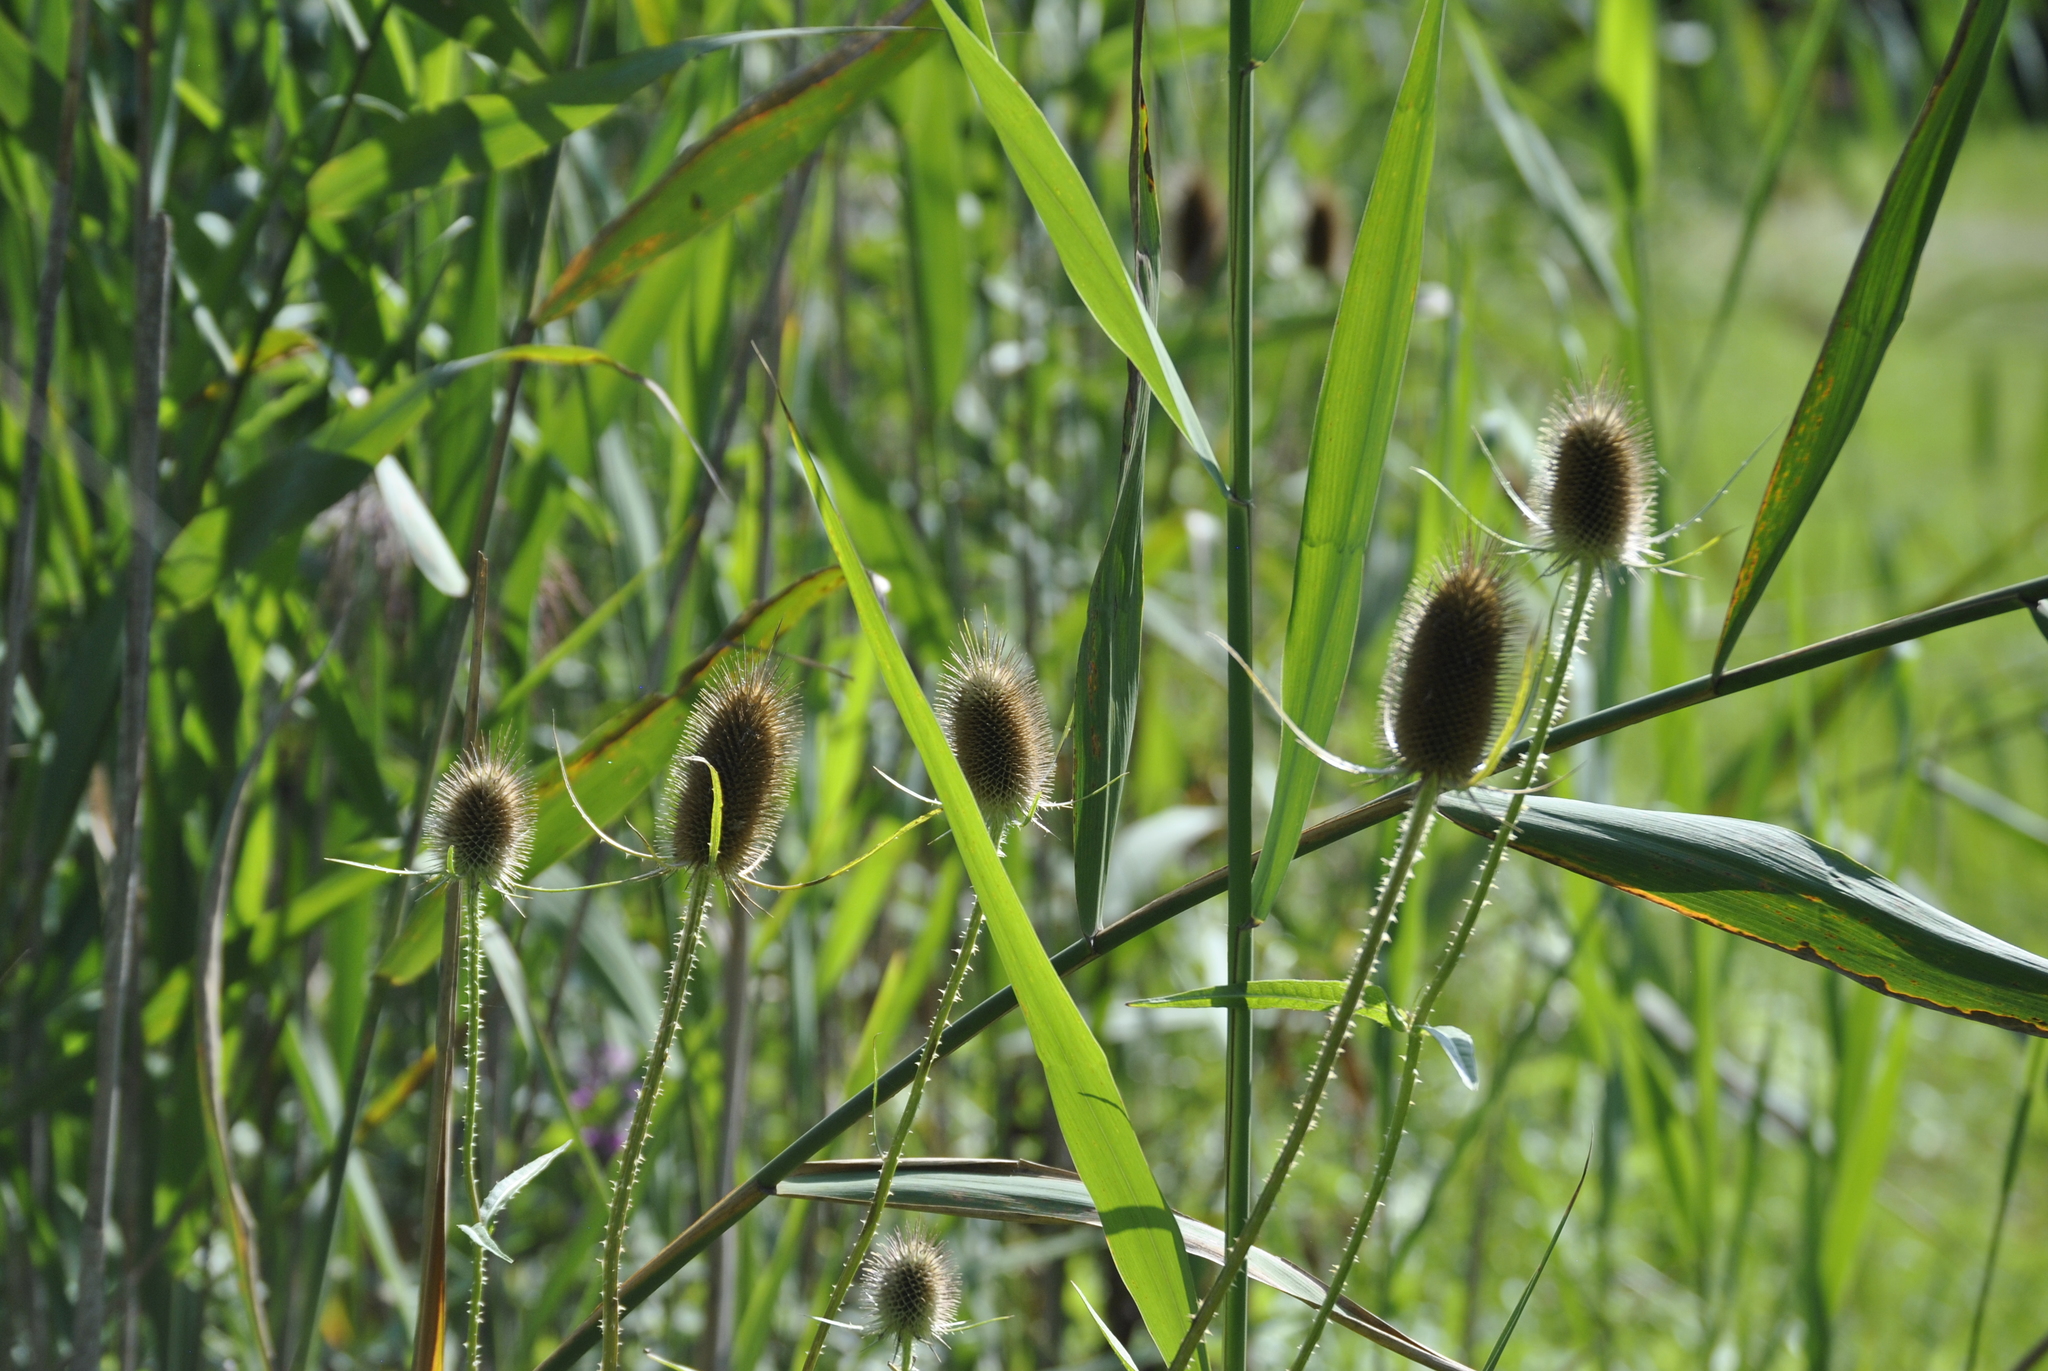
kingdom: Plantae
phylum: Tracheophyta
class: Magnoliopsida
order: Dipsacales
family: Caprifoliaceae
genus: Dipsacus
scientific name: Dipsacus fullonum
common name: Teasel
